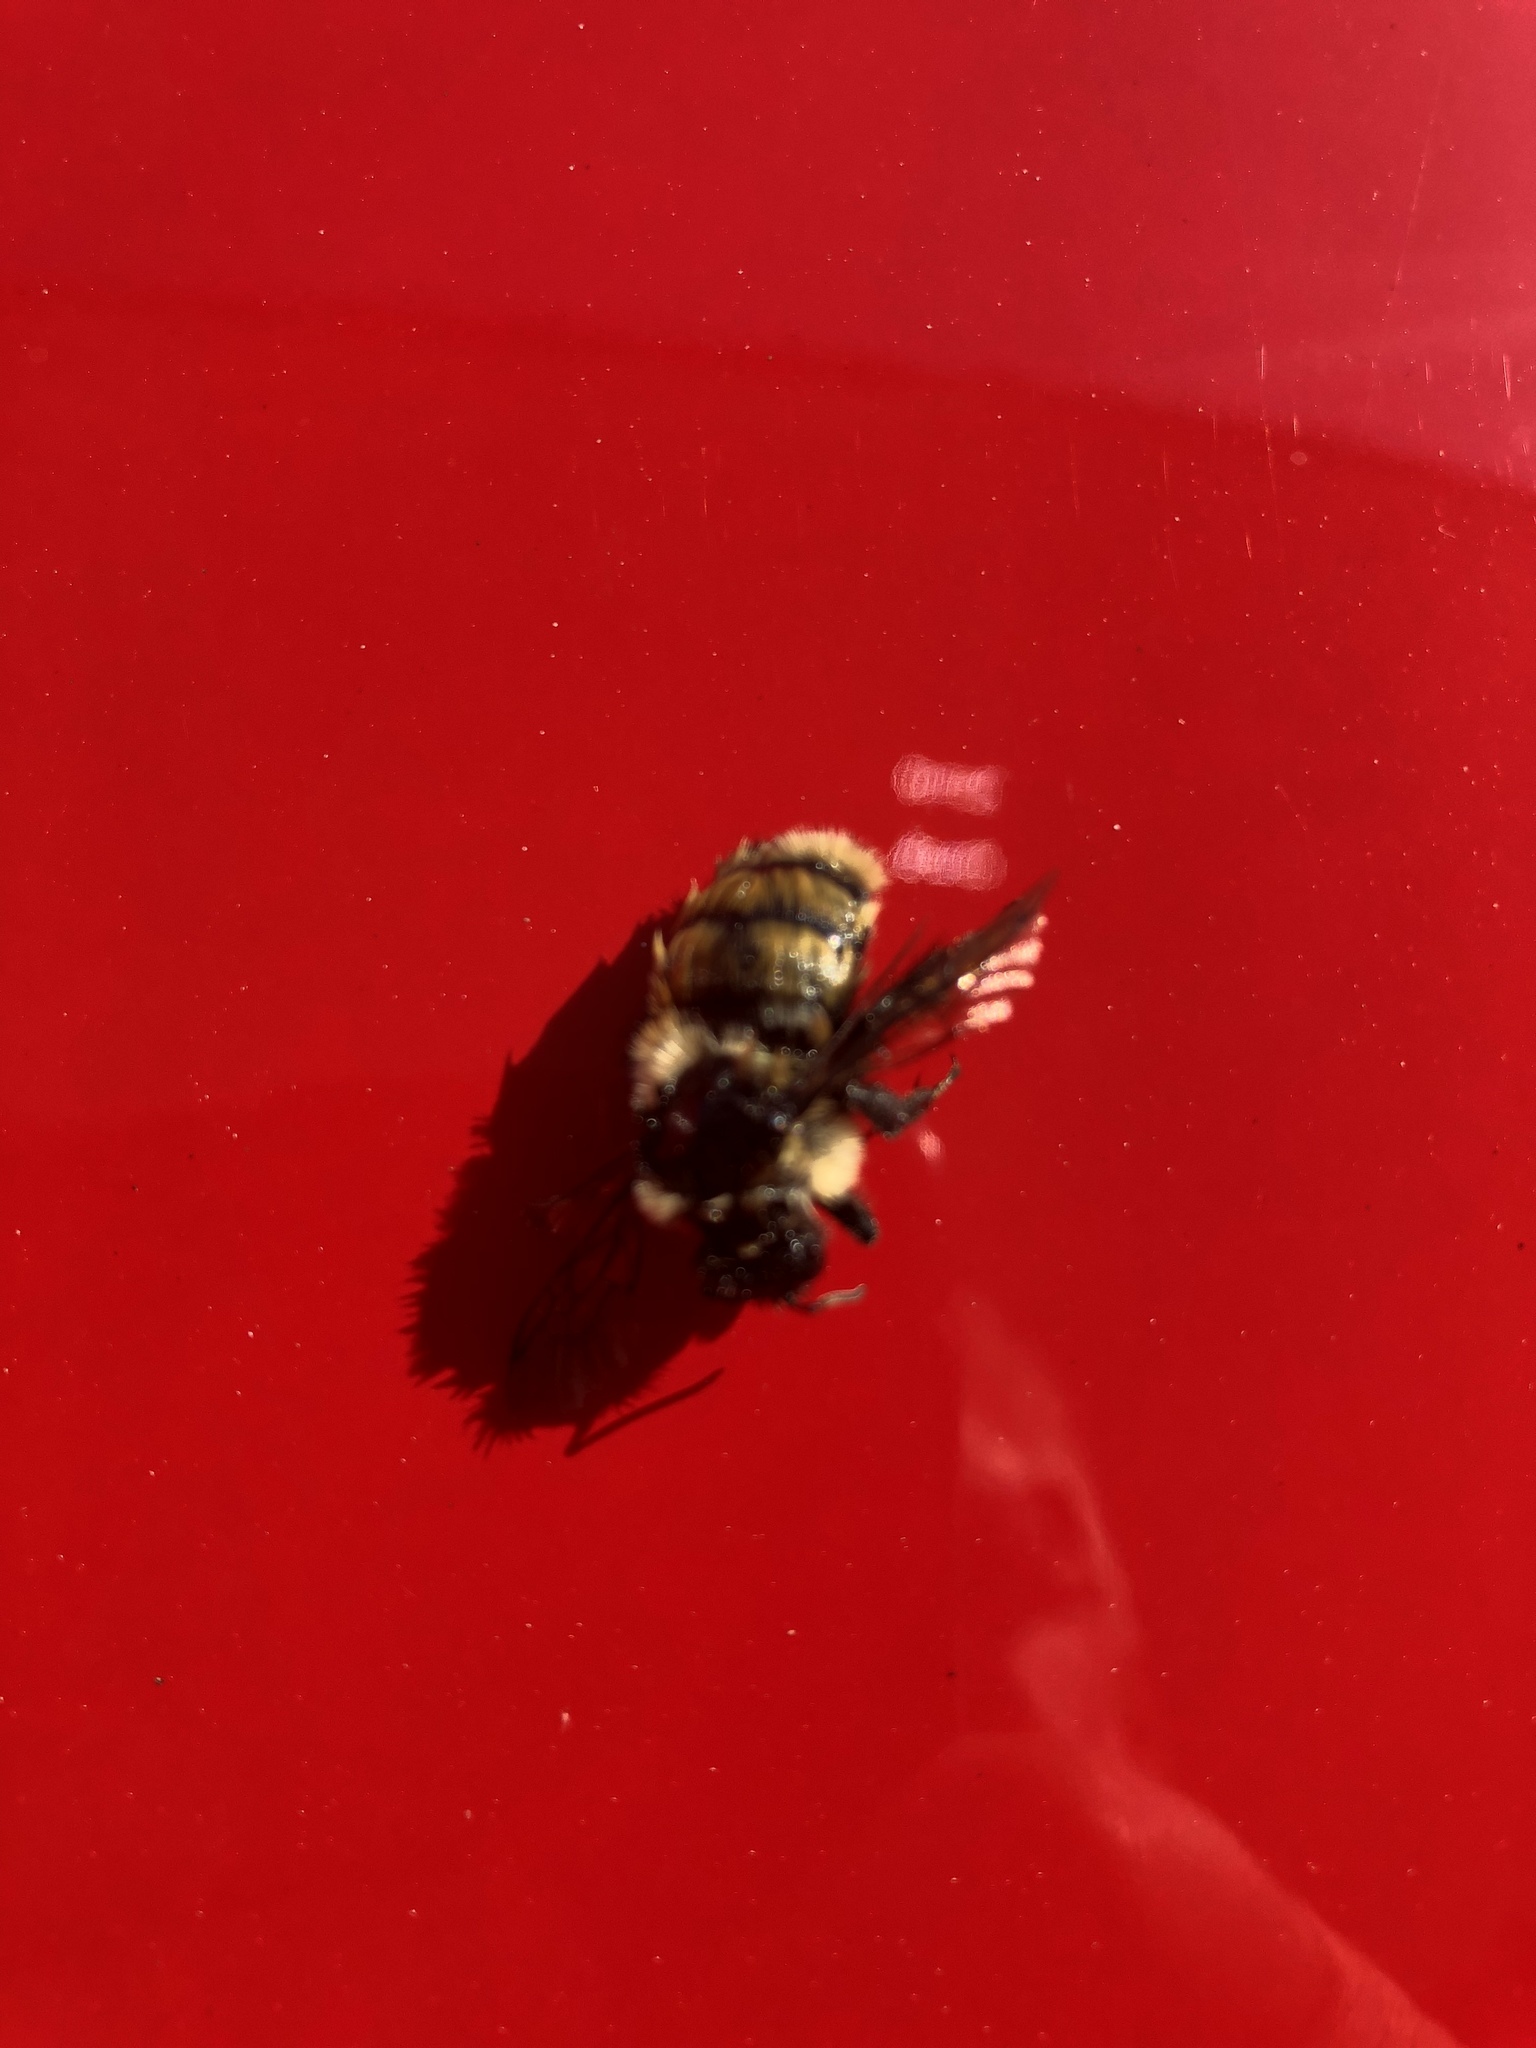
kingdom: Animalia
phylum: Arthropoda
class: Insecta
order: Hymenoptera
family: Apidae
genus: Bombus
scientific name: Bombus ternarius
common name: Tri-colored bumble bee
